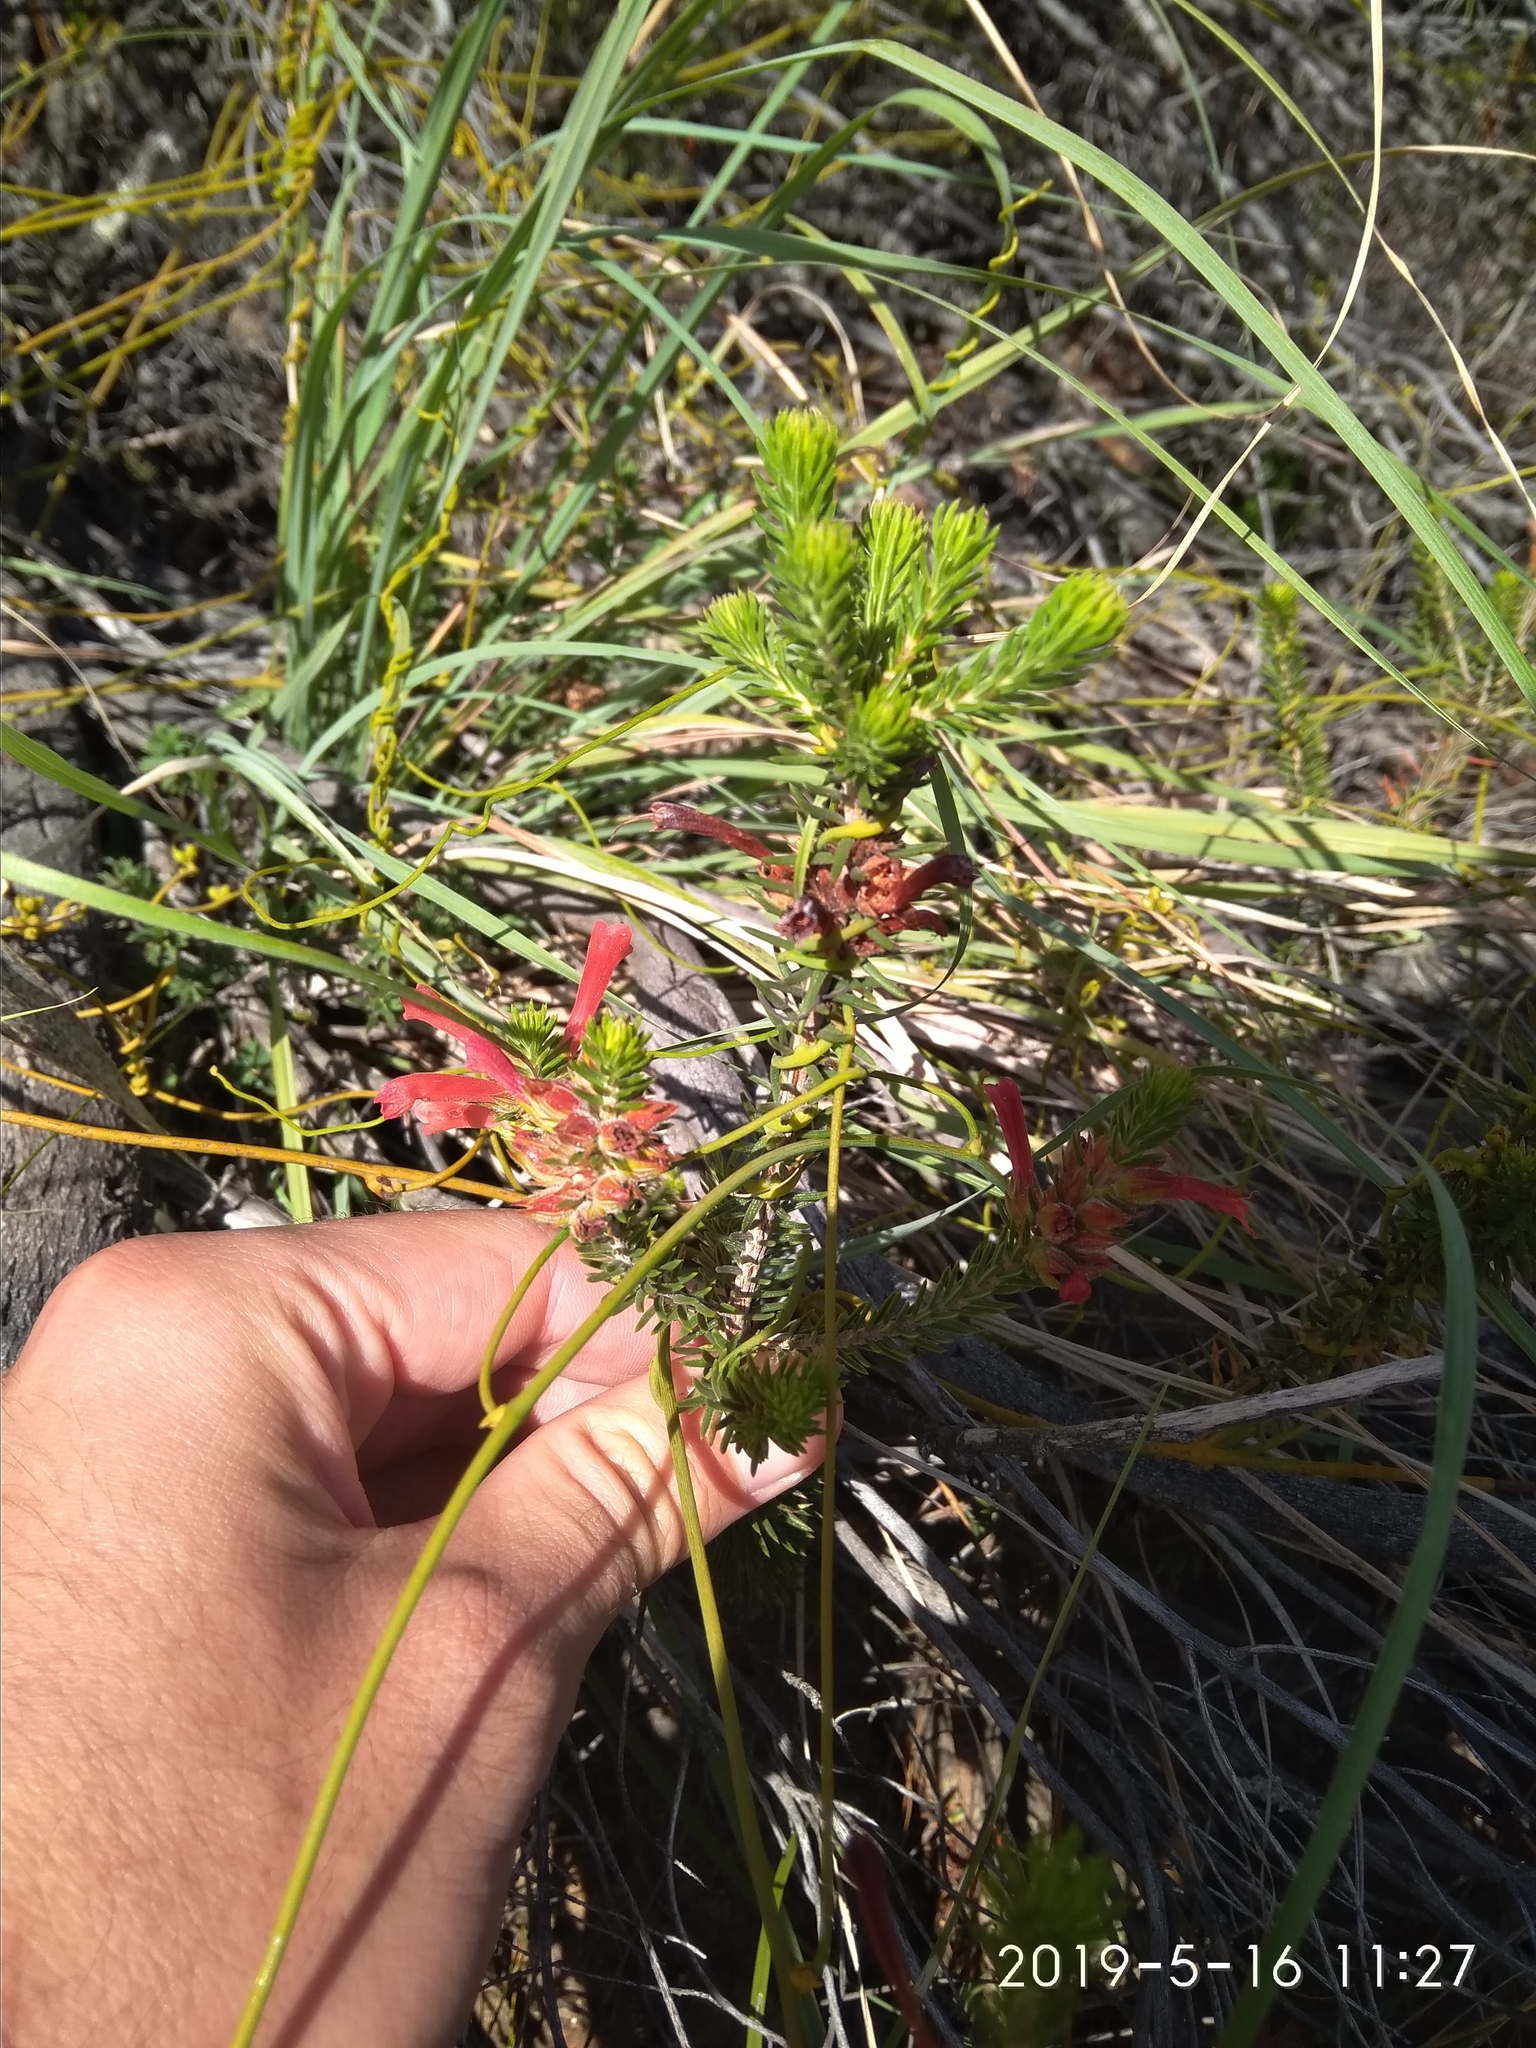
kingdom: Plantae
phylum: Tracheophyta
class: Magnoliopsida
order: Ericales
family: Ericaceae
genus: Erica
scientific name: Erica abietina
